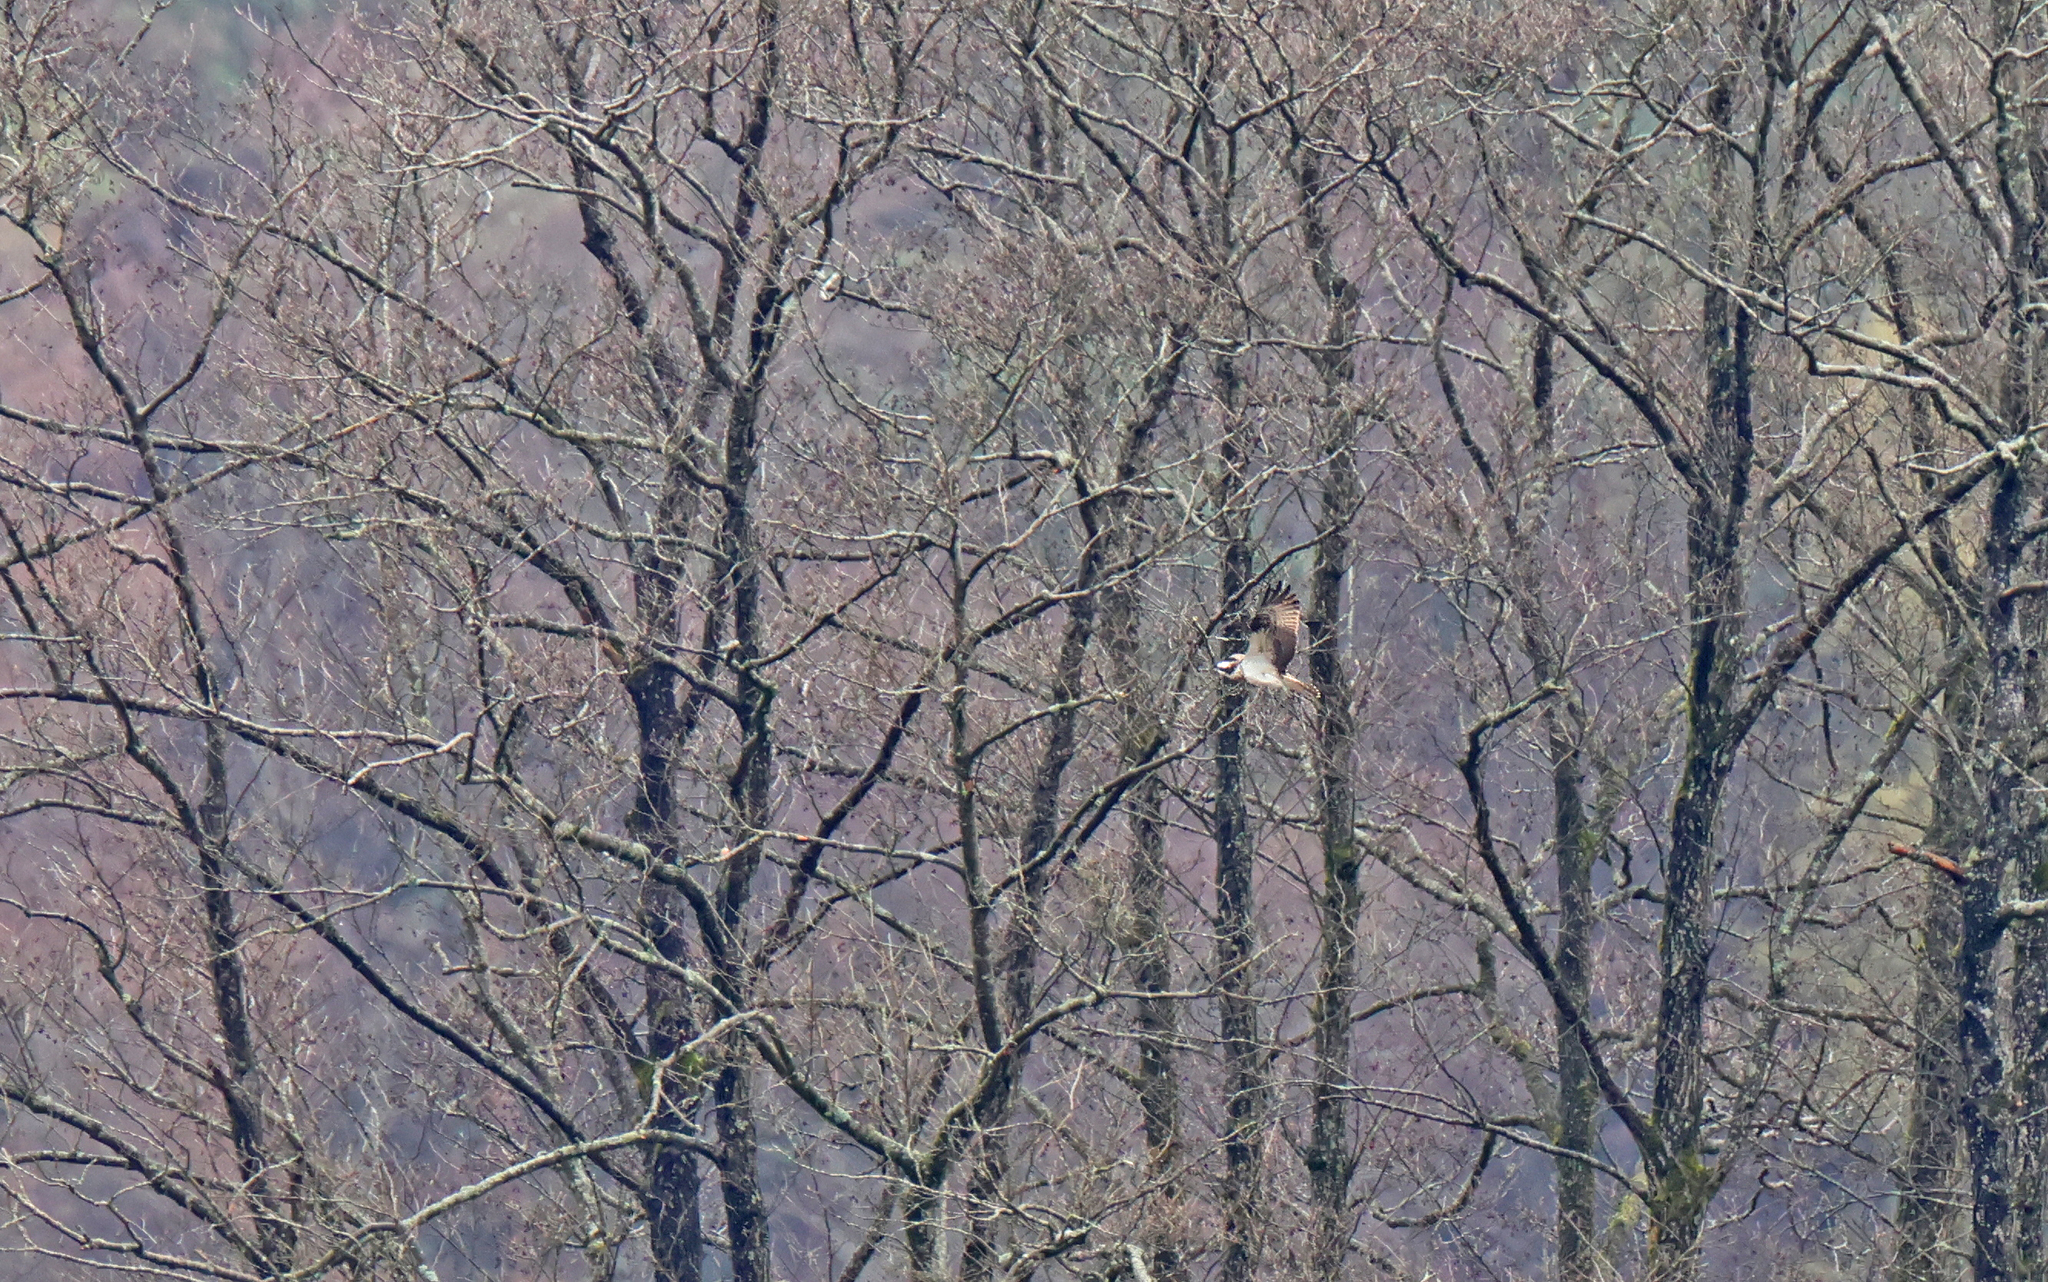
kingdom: Animalia
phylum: Chordata
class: Aves
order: Accipitriformes
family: Pandionidae
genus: Pandion
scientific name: Pandion haliaetus
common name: Osprey
